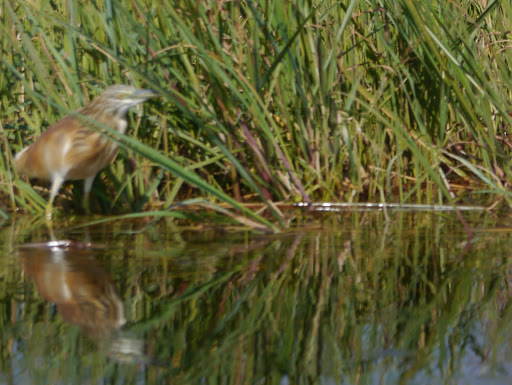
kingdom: Animalia
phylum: Chordata
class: Aves
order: Pelecaniformes
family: Ardeidae
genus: Ardeola
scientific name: Ardeola ralloides
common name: Squacco heron
